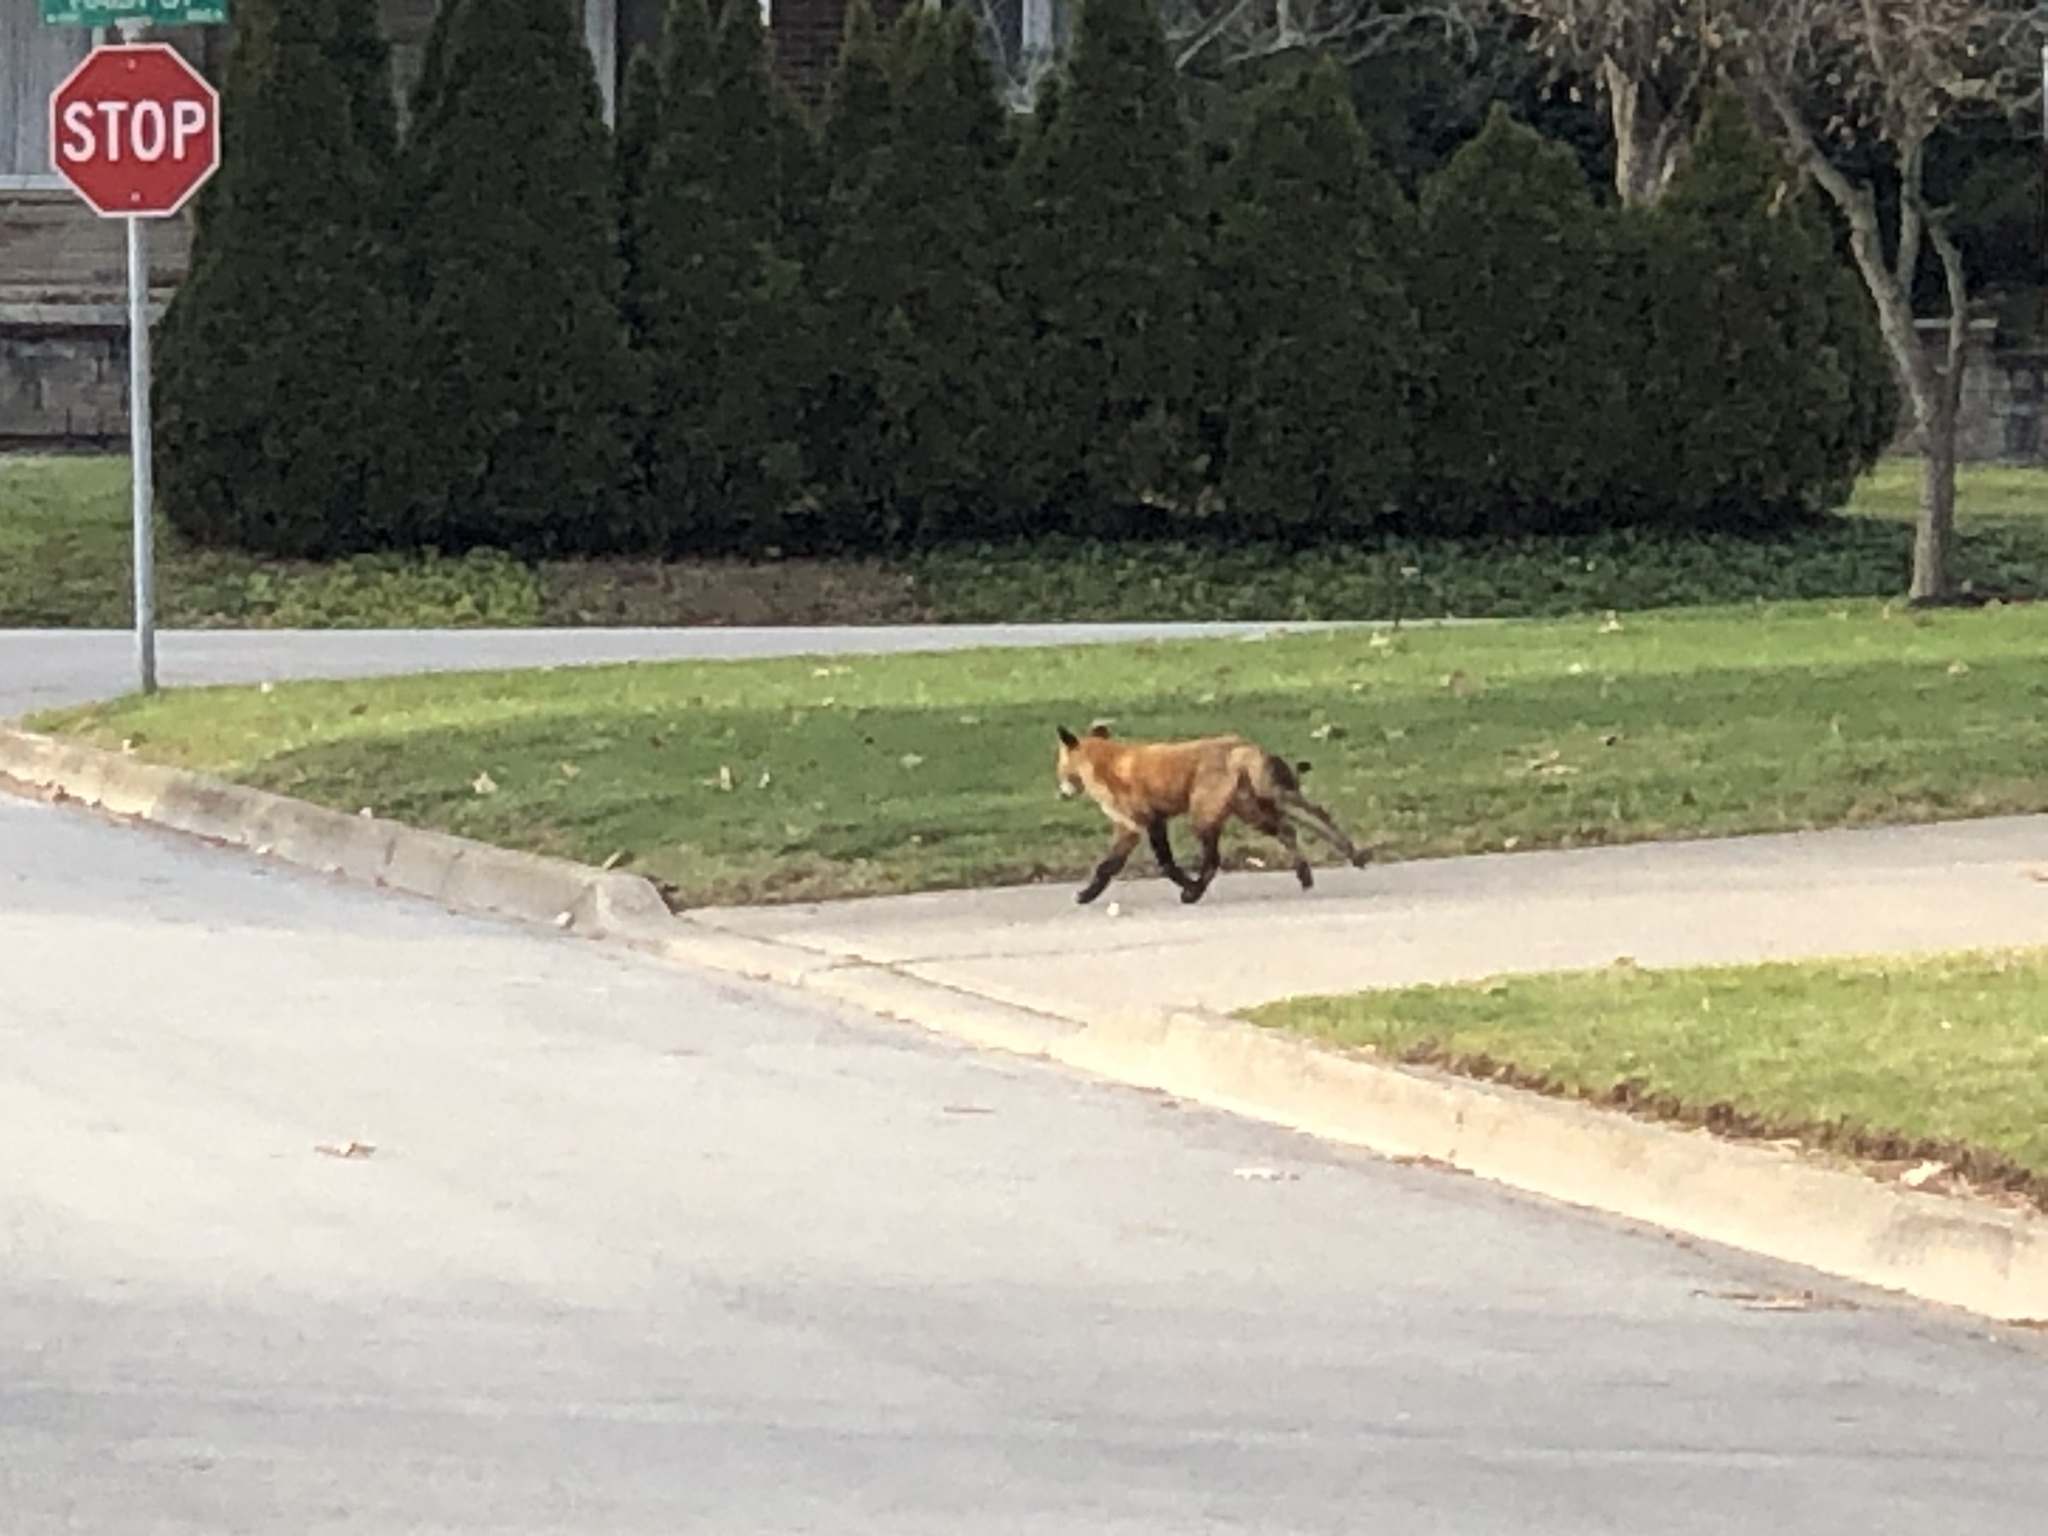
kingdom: Animalia
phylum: Chordata
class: Mammalia
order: Carnivora
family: Canidae
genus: Vulpes
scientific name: Vulpes vulpes
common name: Red fox
